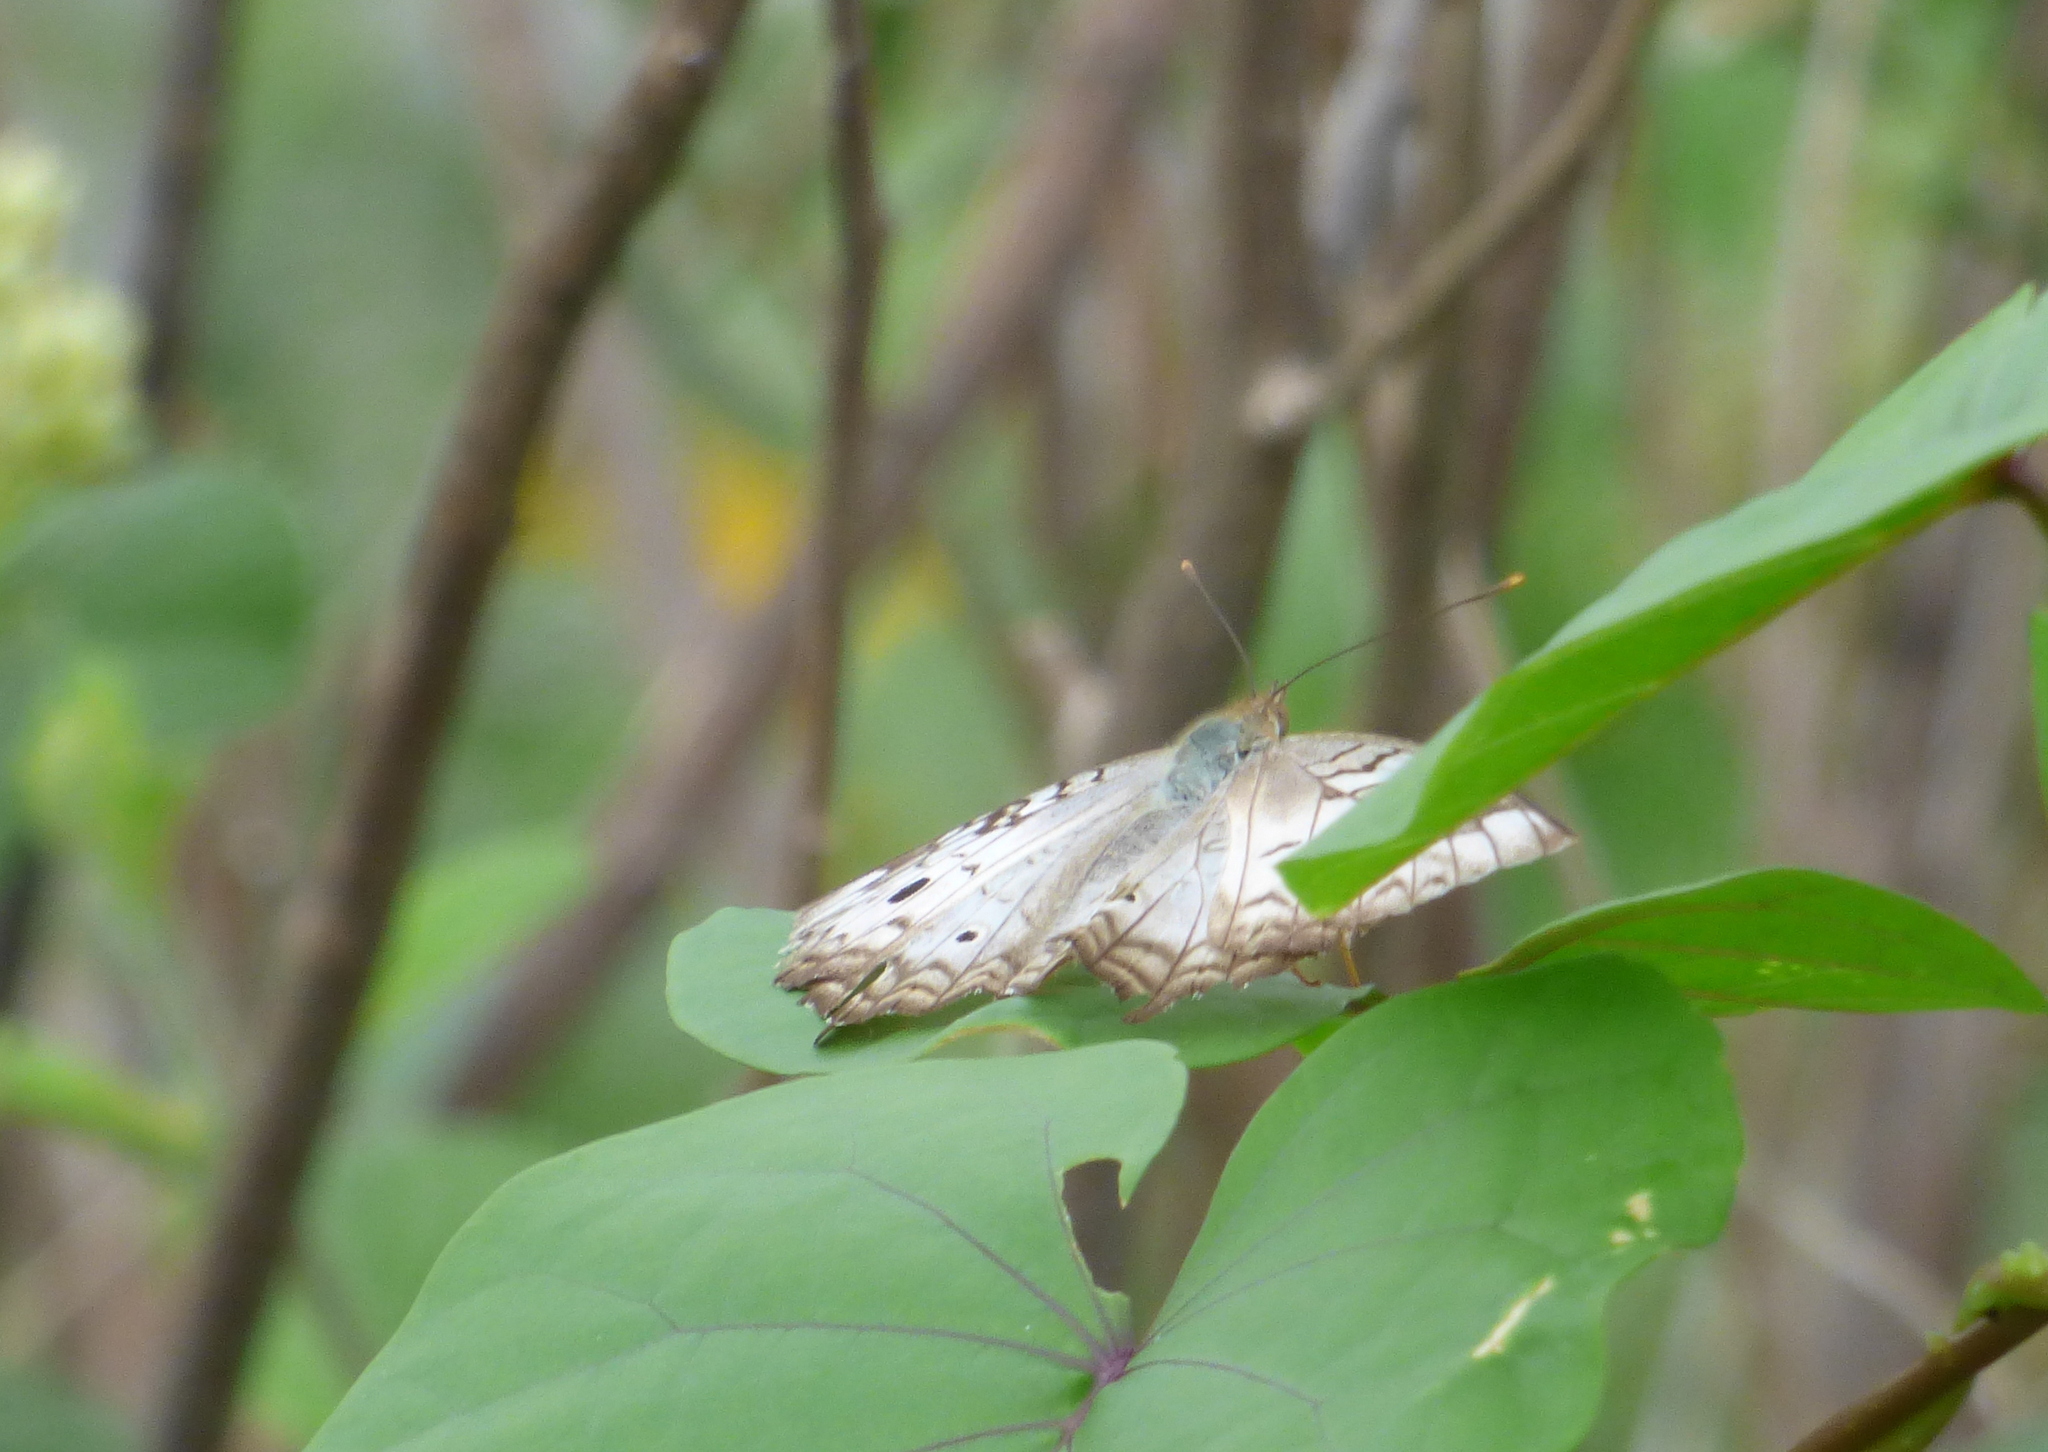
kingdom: Animalia
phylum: Arthropoda
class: Insecta
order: Lepidoptera
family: Nymphalidae
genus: Anartia
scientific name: Anartia jatrophae
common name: White peacock
